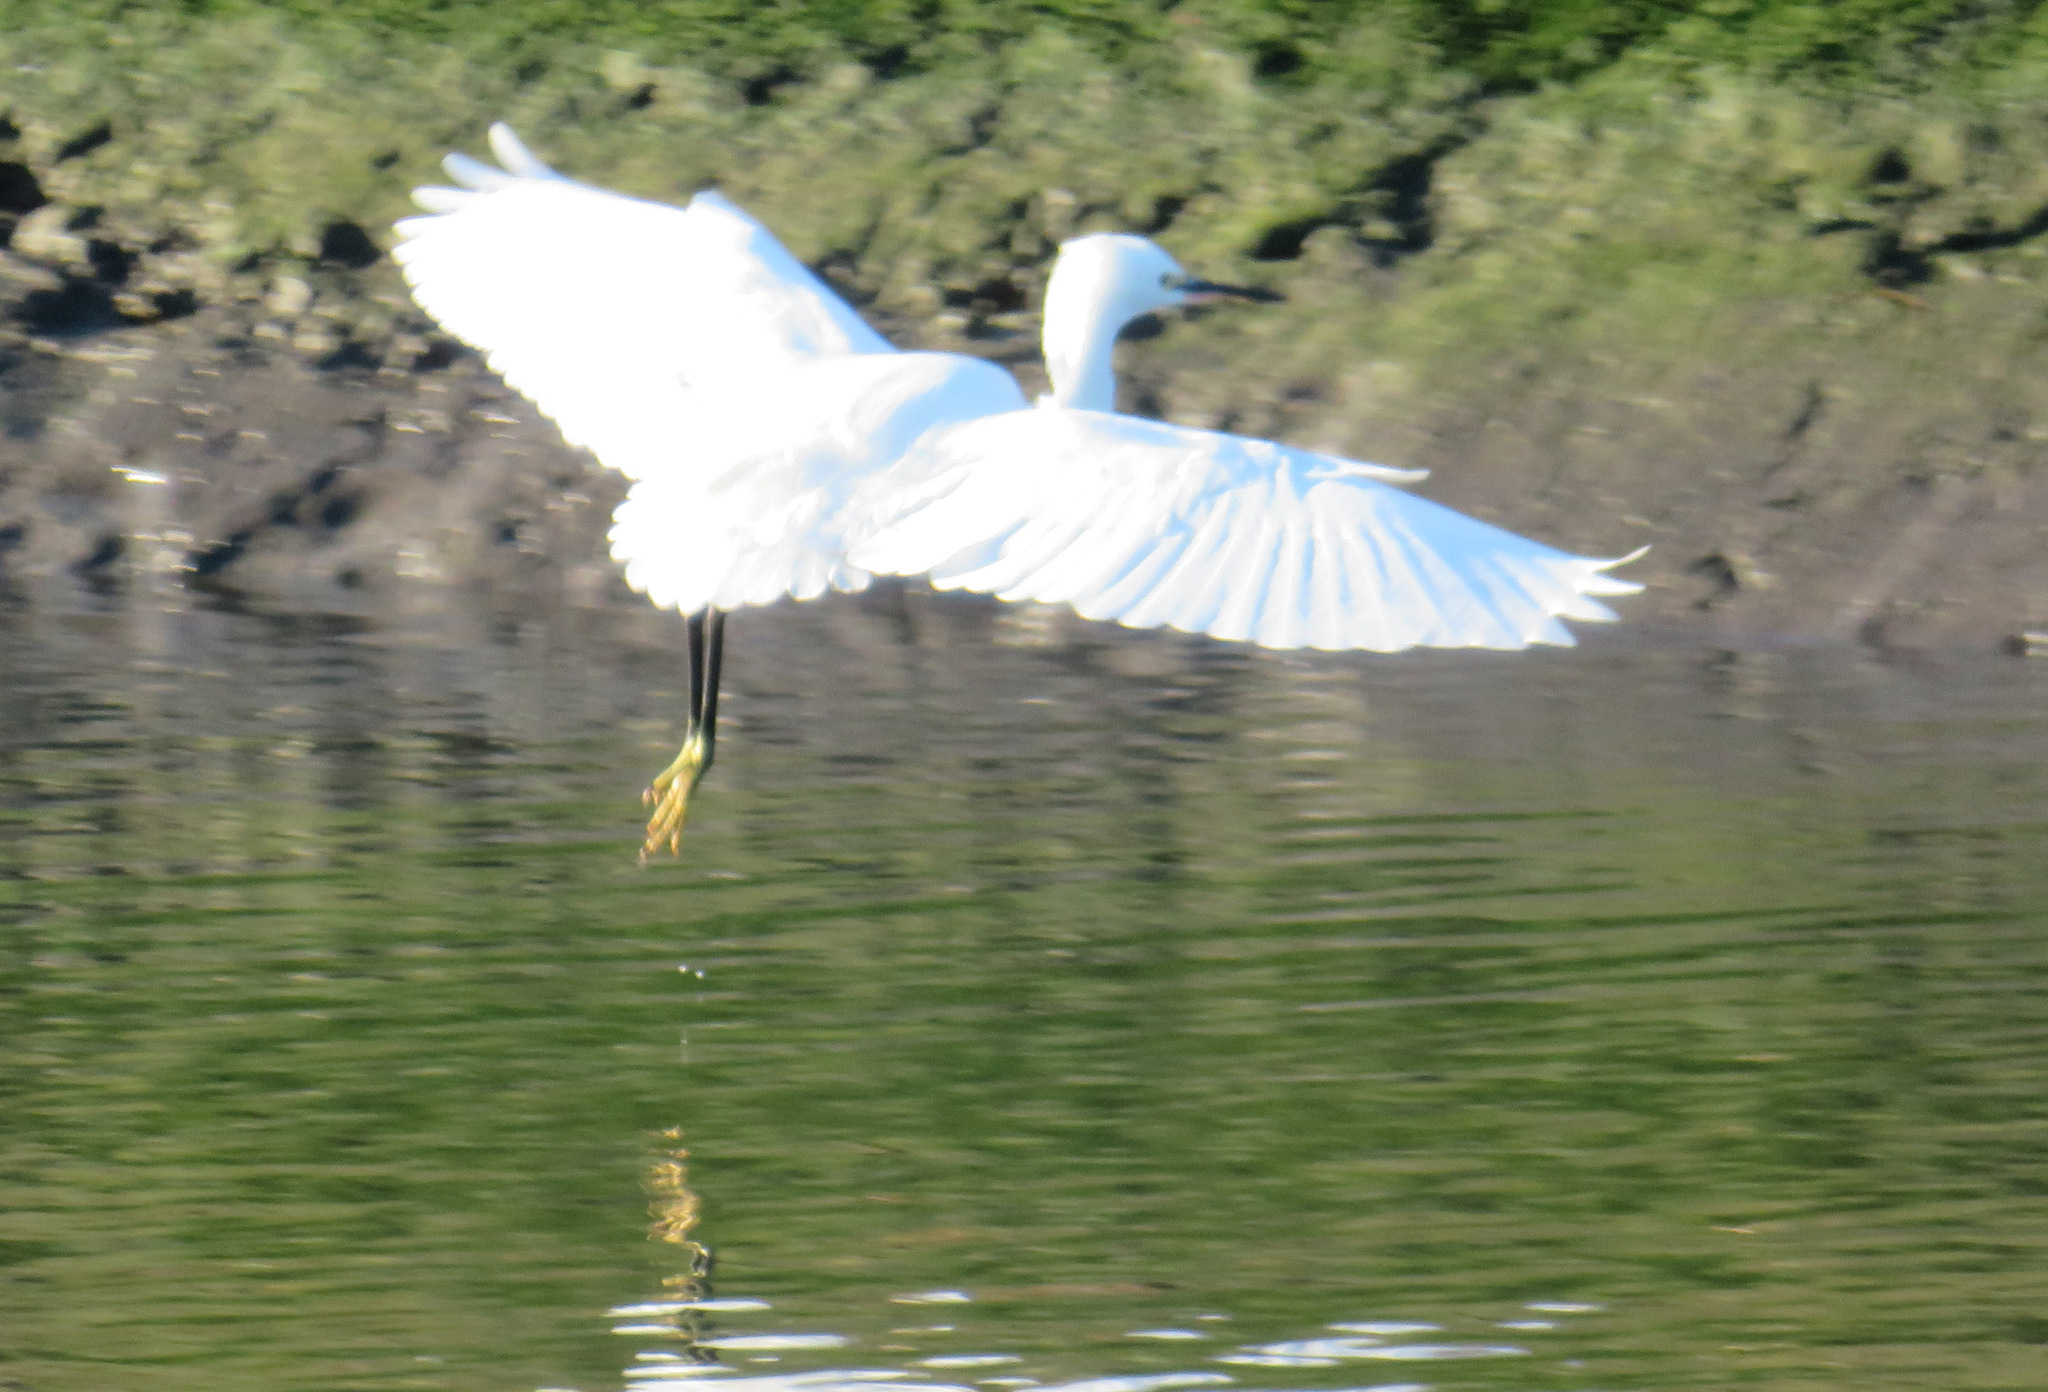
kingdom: Animalia
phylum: Chordata
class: Aves
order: Pelecaniformes
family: Ardeidae
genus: Egretta
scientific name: Egretta garzetta
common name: Little egret
